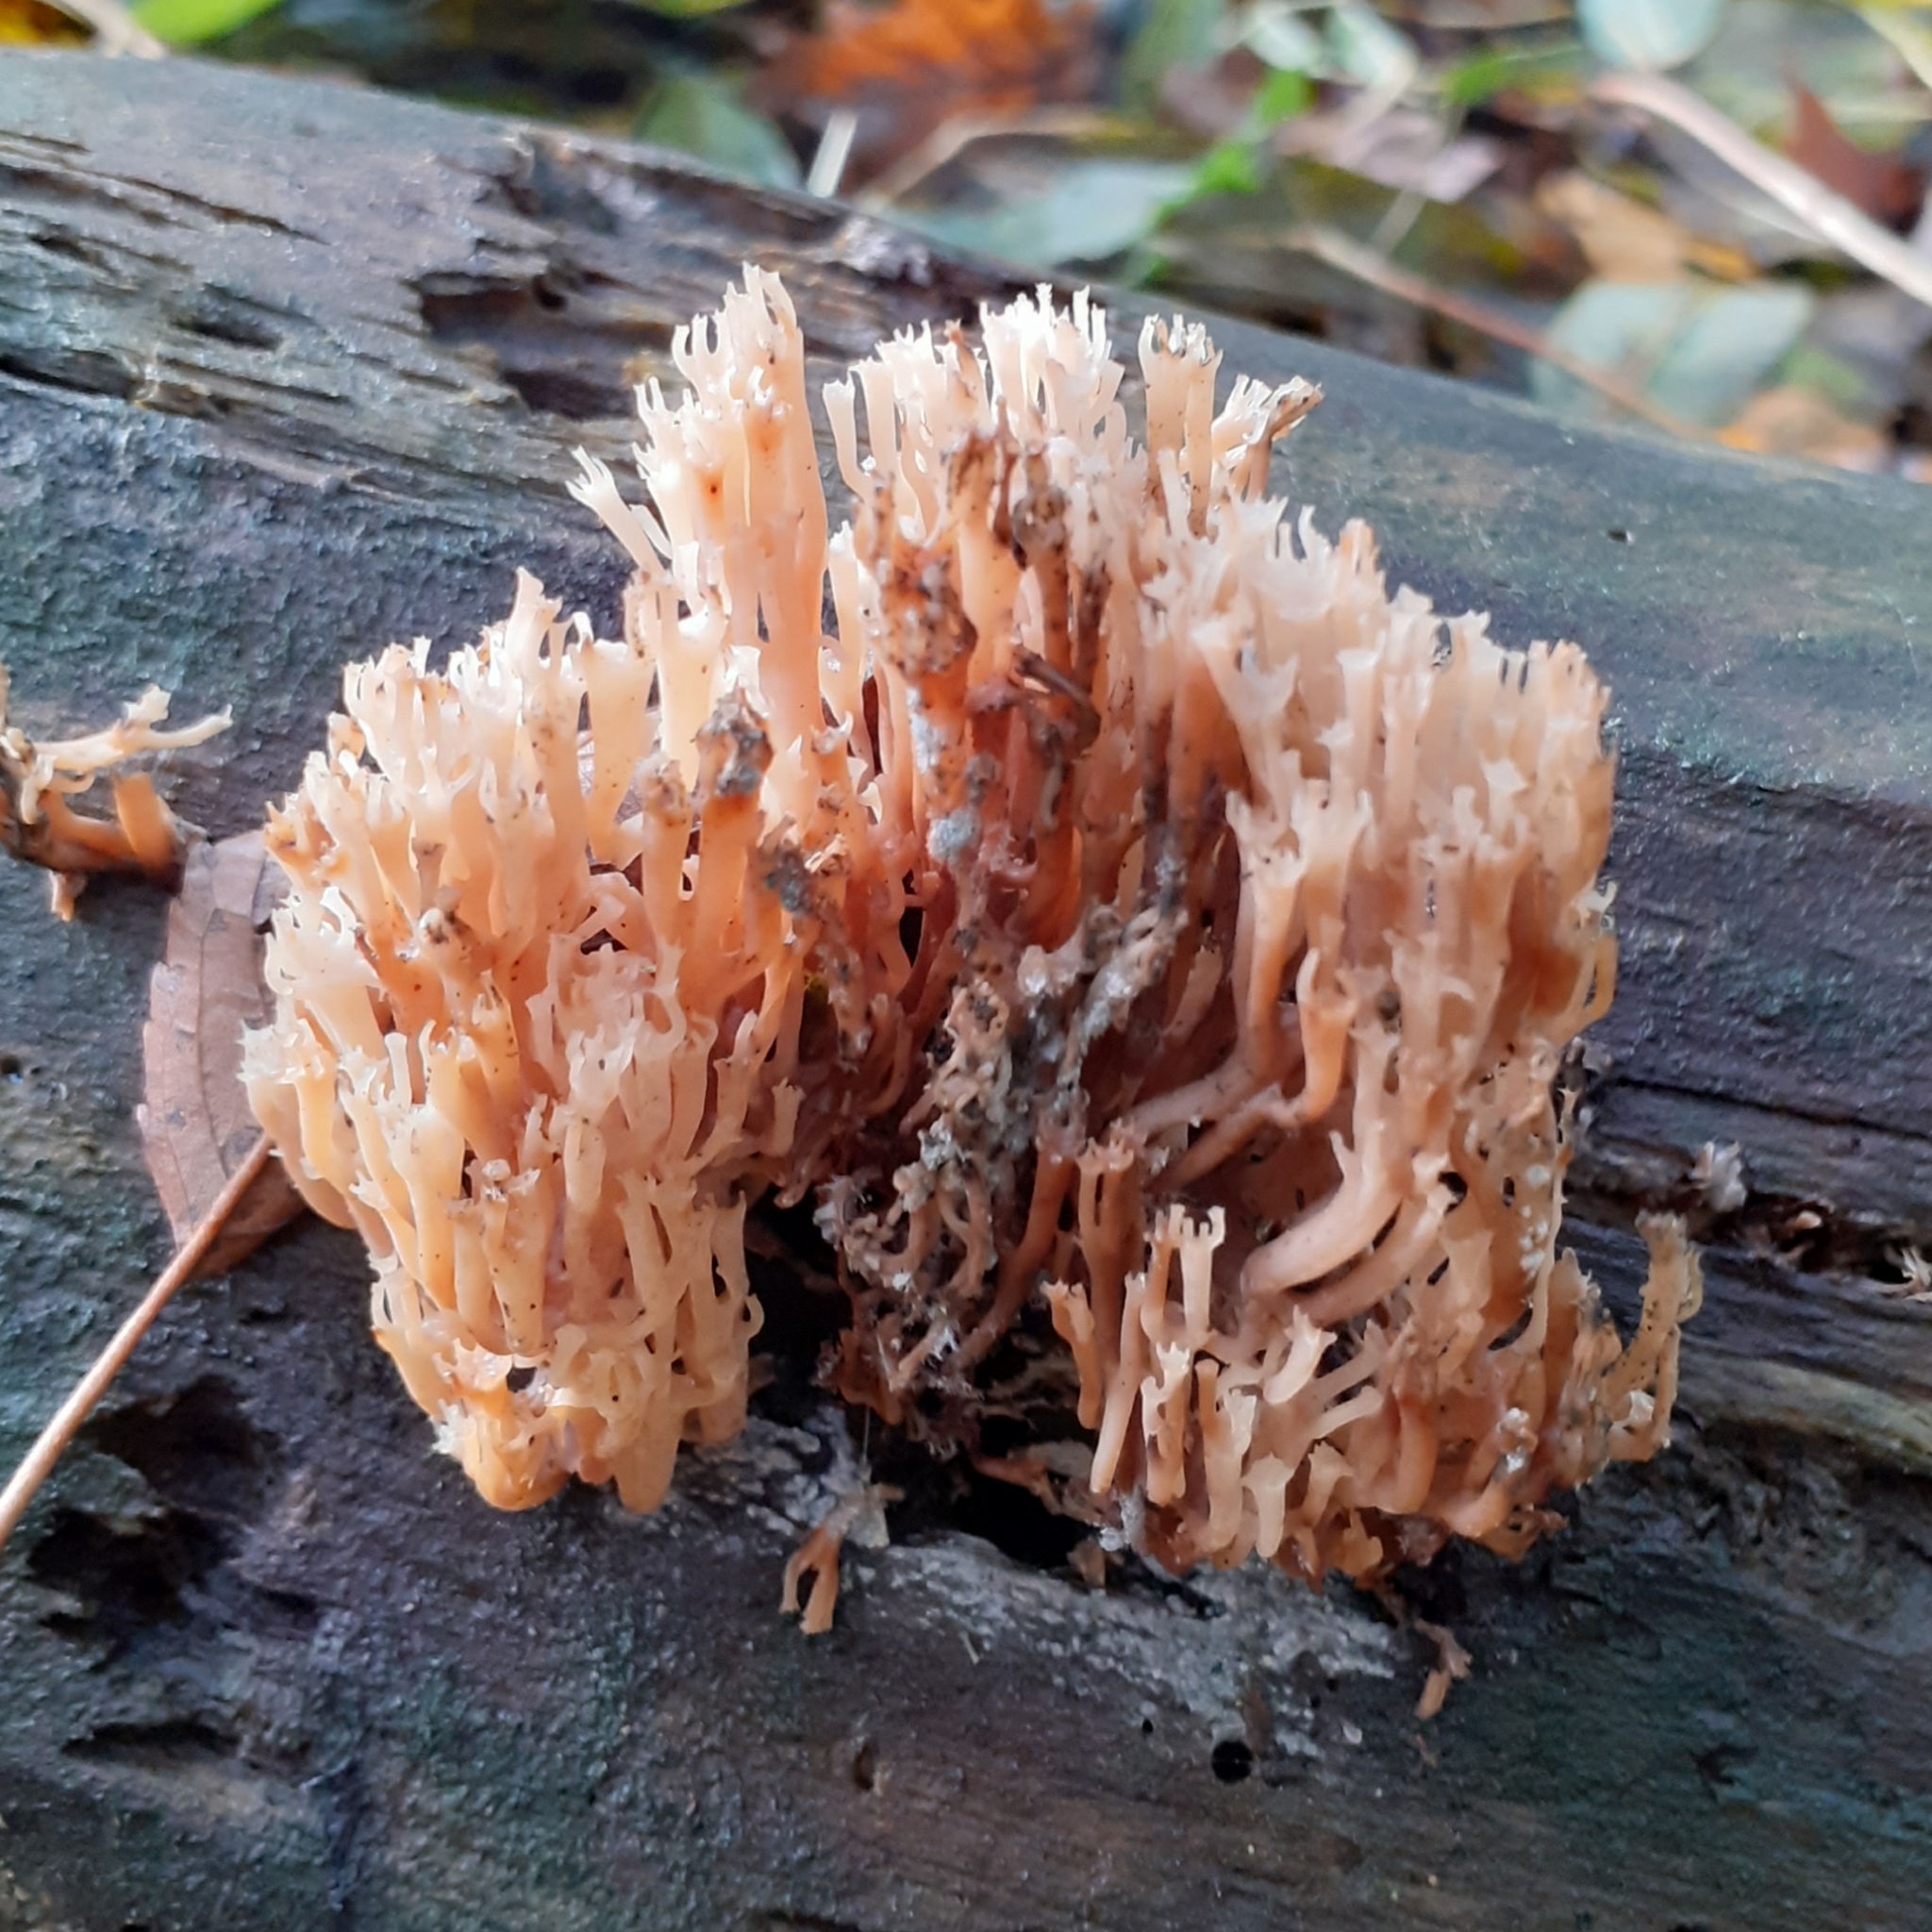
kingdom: Fungi
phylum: Basidiomycota
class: Agaricomycetes
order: Russulales
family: Auriscalpiaceae
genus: Artomyces
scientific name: Artomyces pyxidatus
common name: Crown-tipped coral fungus
